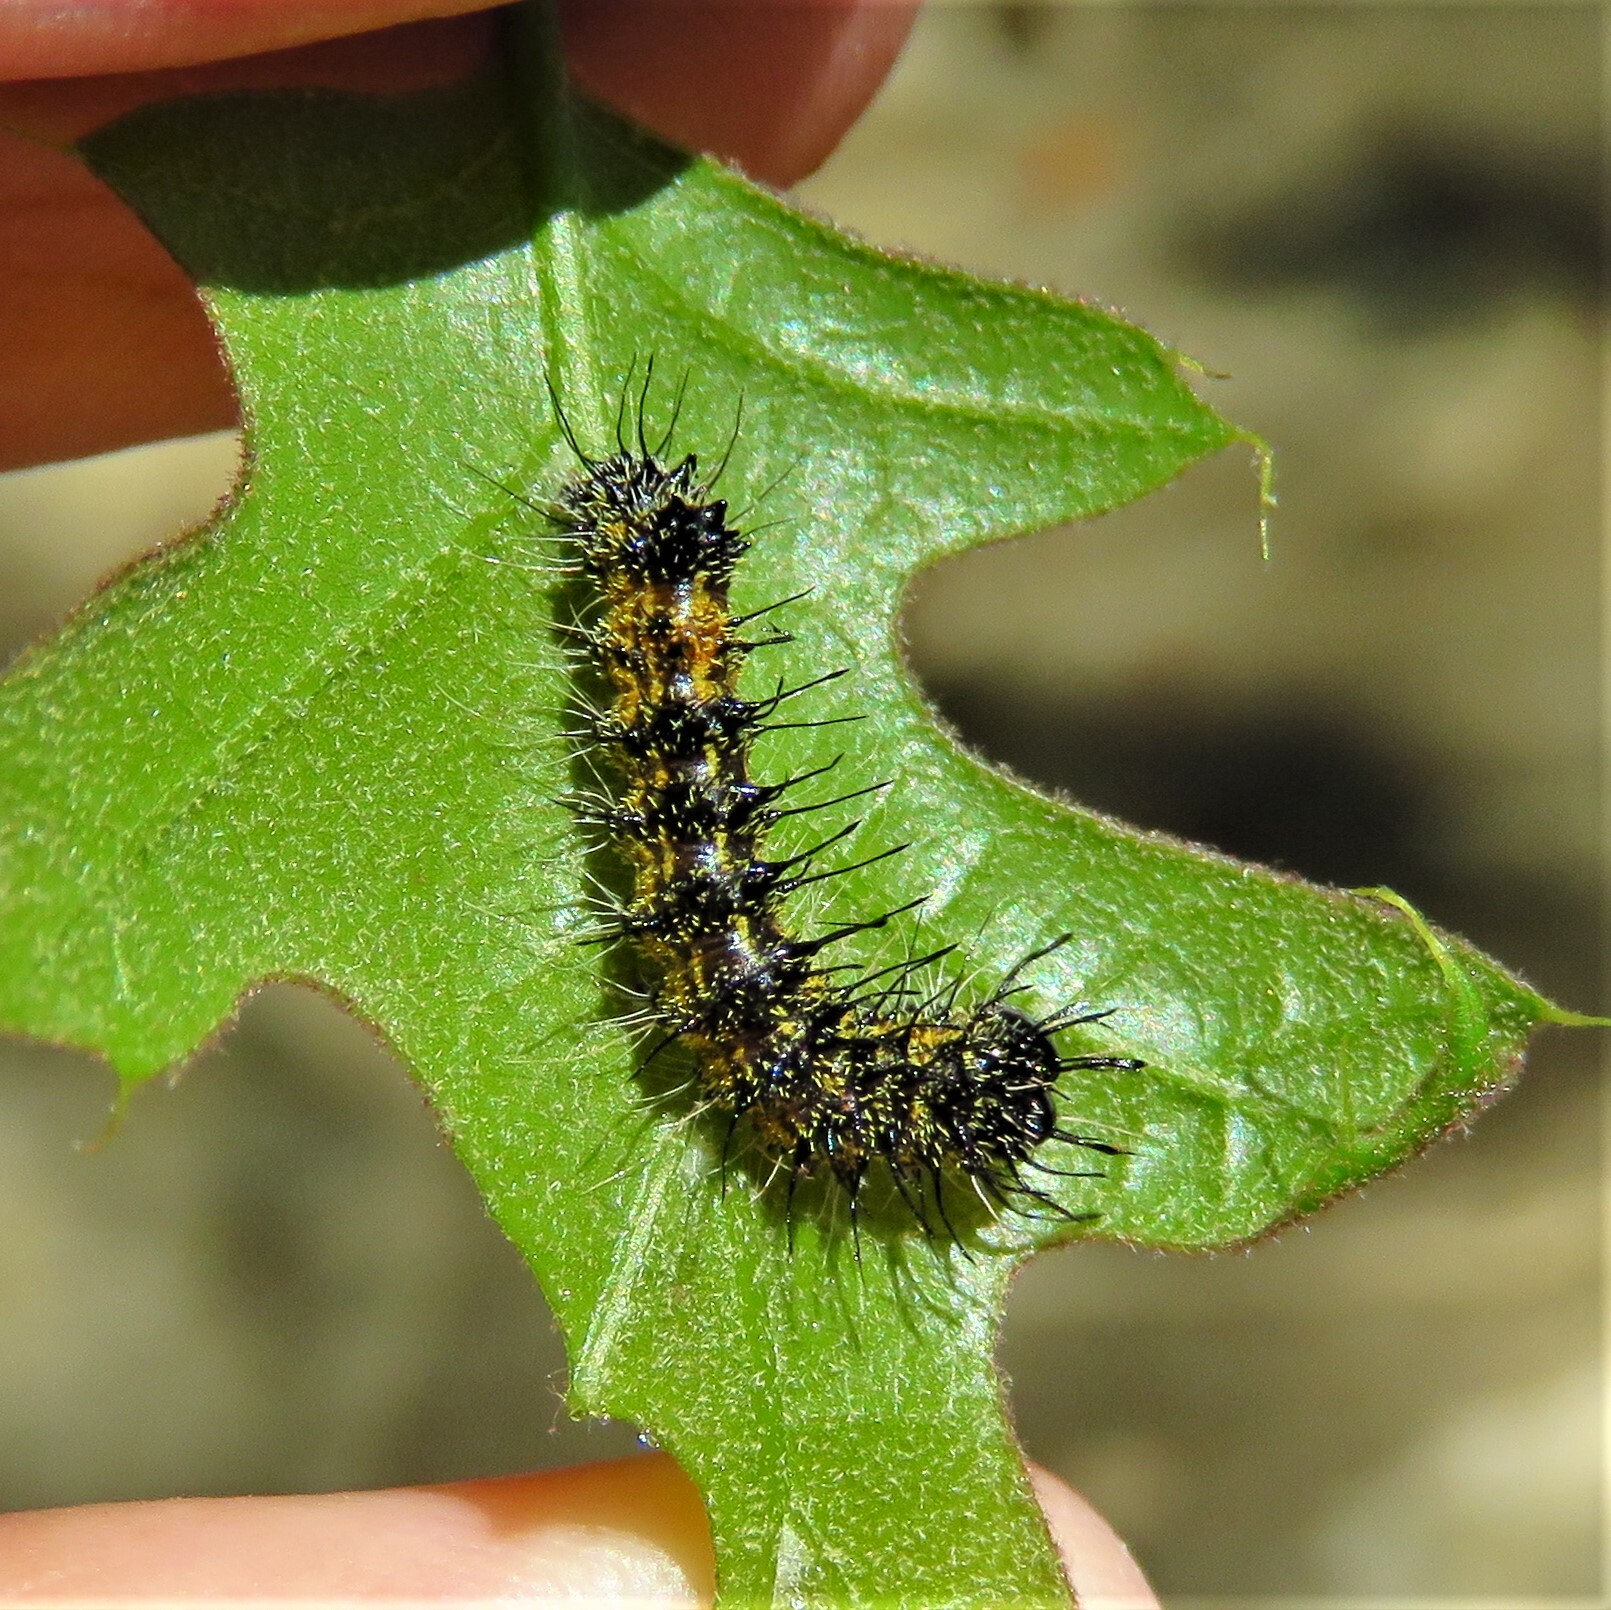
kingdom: Animalia
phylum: Arthropoda
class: Insecta
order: Lepidoptera
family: Noctuidae
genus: Acronicta
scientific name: Acronicta atristrigatus
